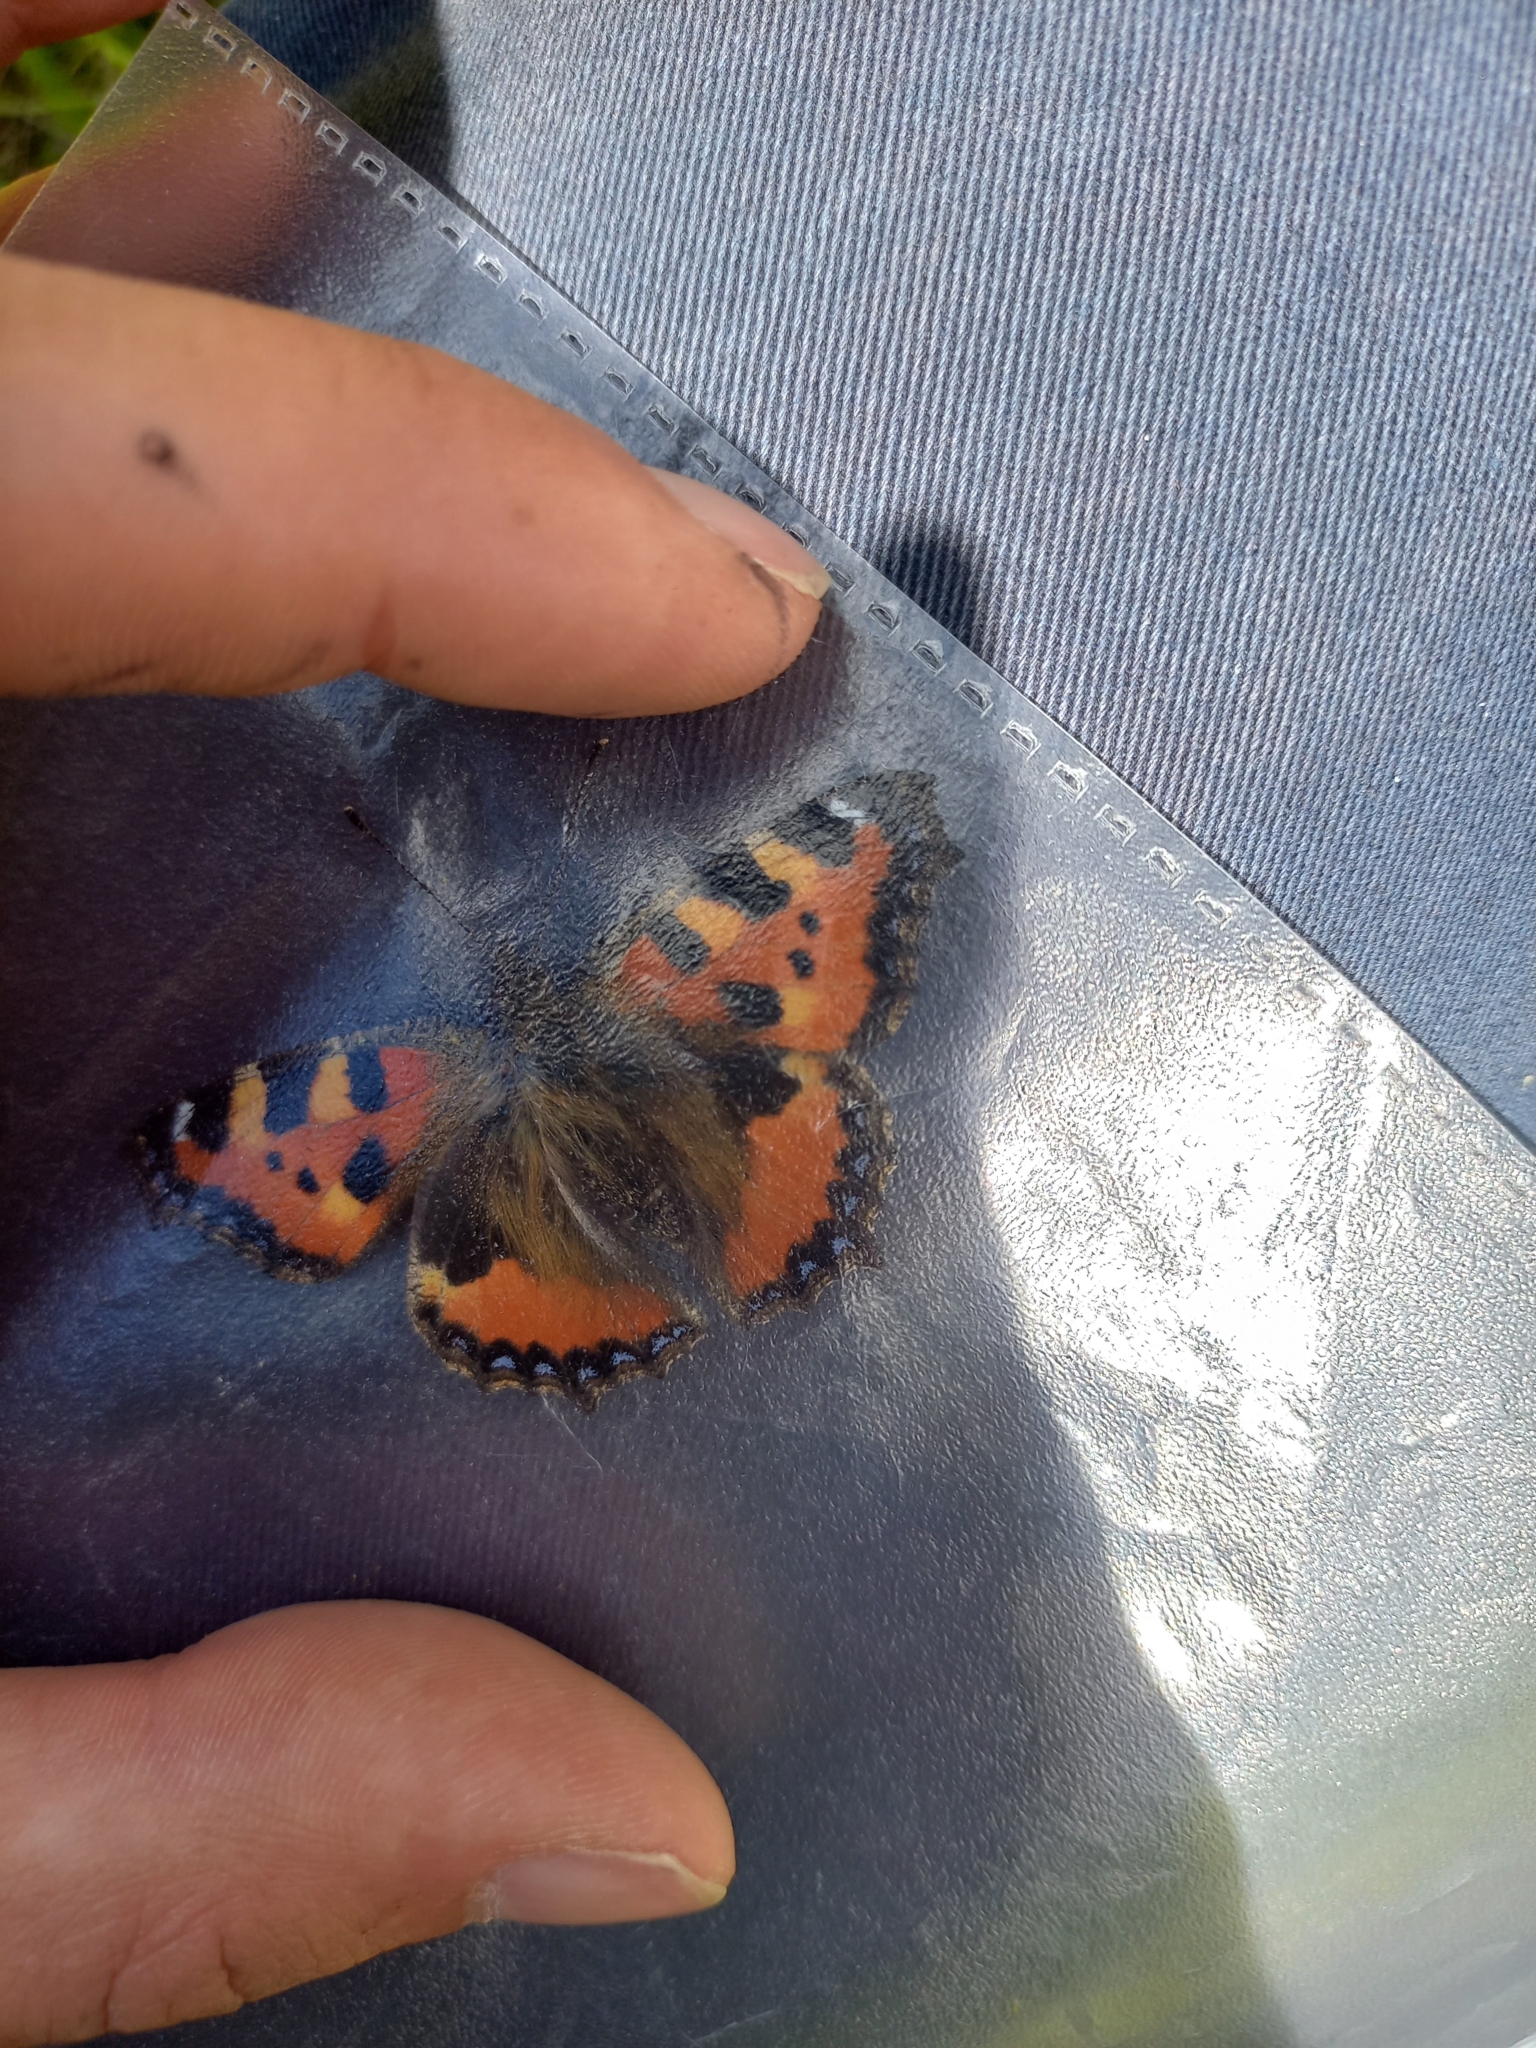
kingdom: Animalia
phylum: Arthropoda
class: Insecta
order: Lepidoptera
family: Nymphalidae
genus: Aglais
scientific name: Aglais urticae
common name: Small tortoiseshell
